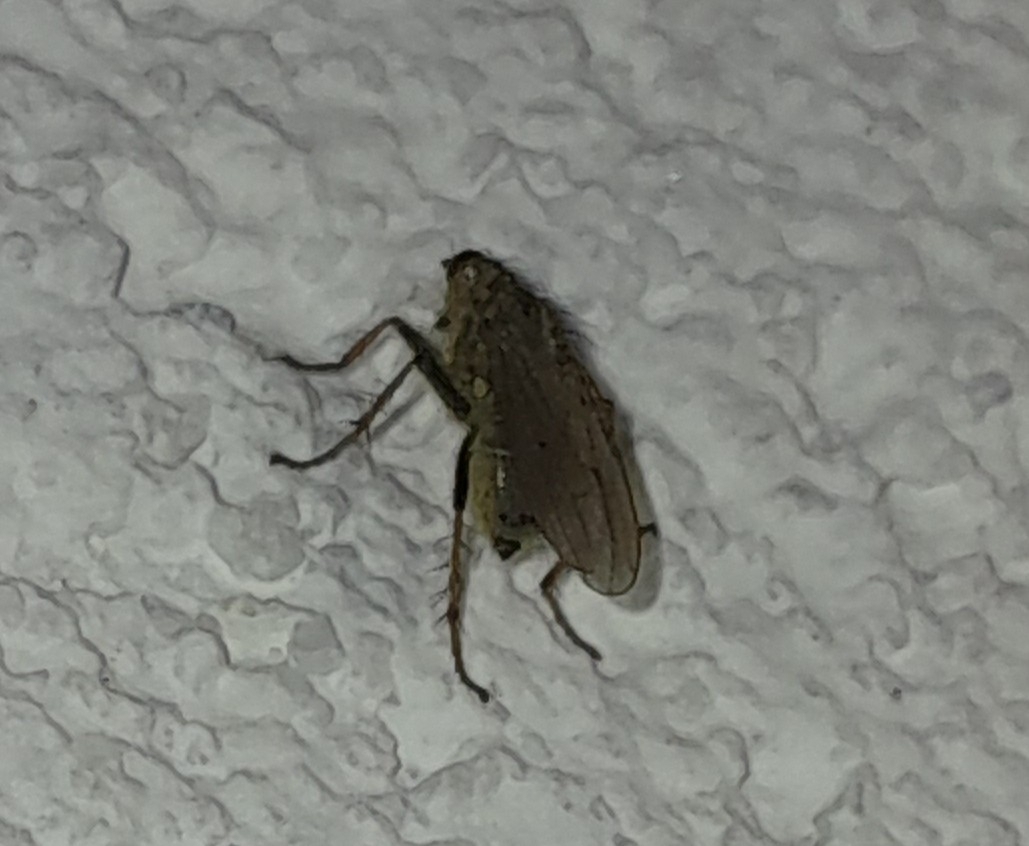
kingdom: Animalia
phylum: Arthropoda
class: Insecta
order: Diptera
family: Scathophagidae
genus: Scathophaga
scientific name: Scathophaga stercoraria
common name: Yellow dung fly
